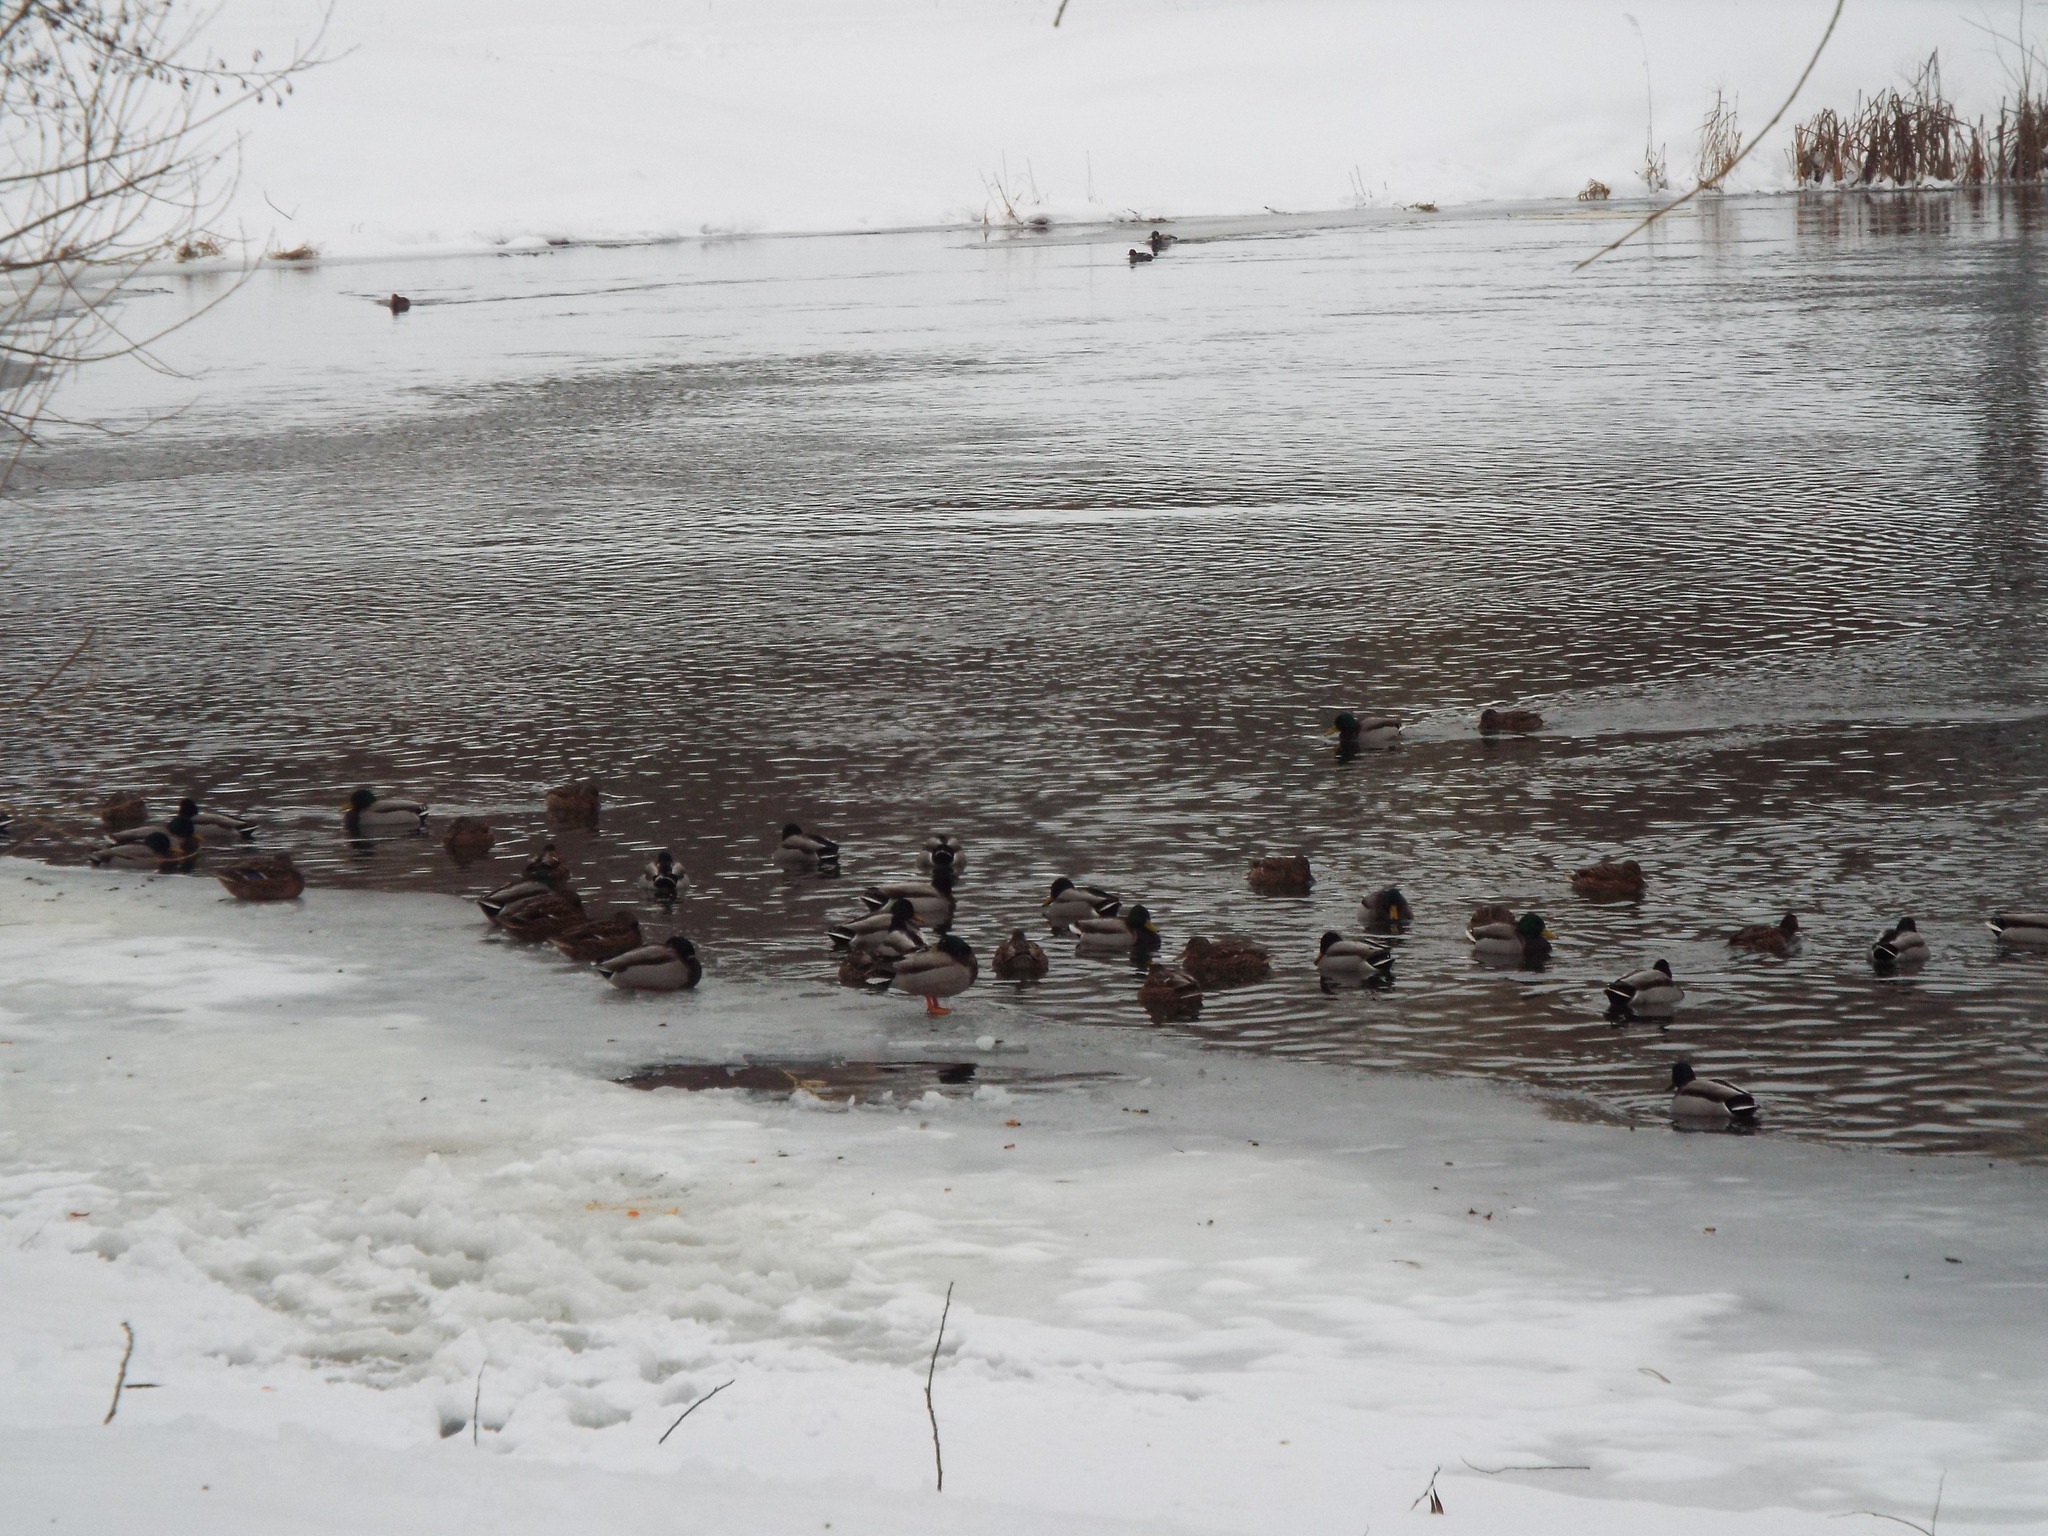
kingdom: Animalia
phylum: Chordata
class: Aves
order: Anseriformes
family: Anatidae
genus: Anas
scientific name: Anas platyrhynchos
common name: Mallard
